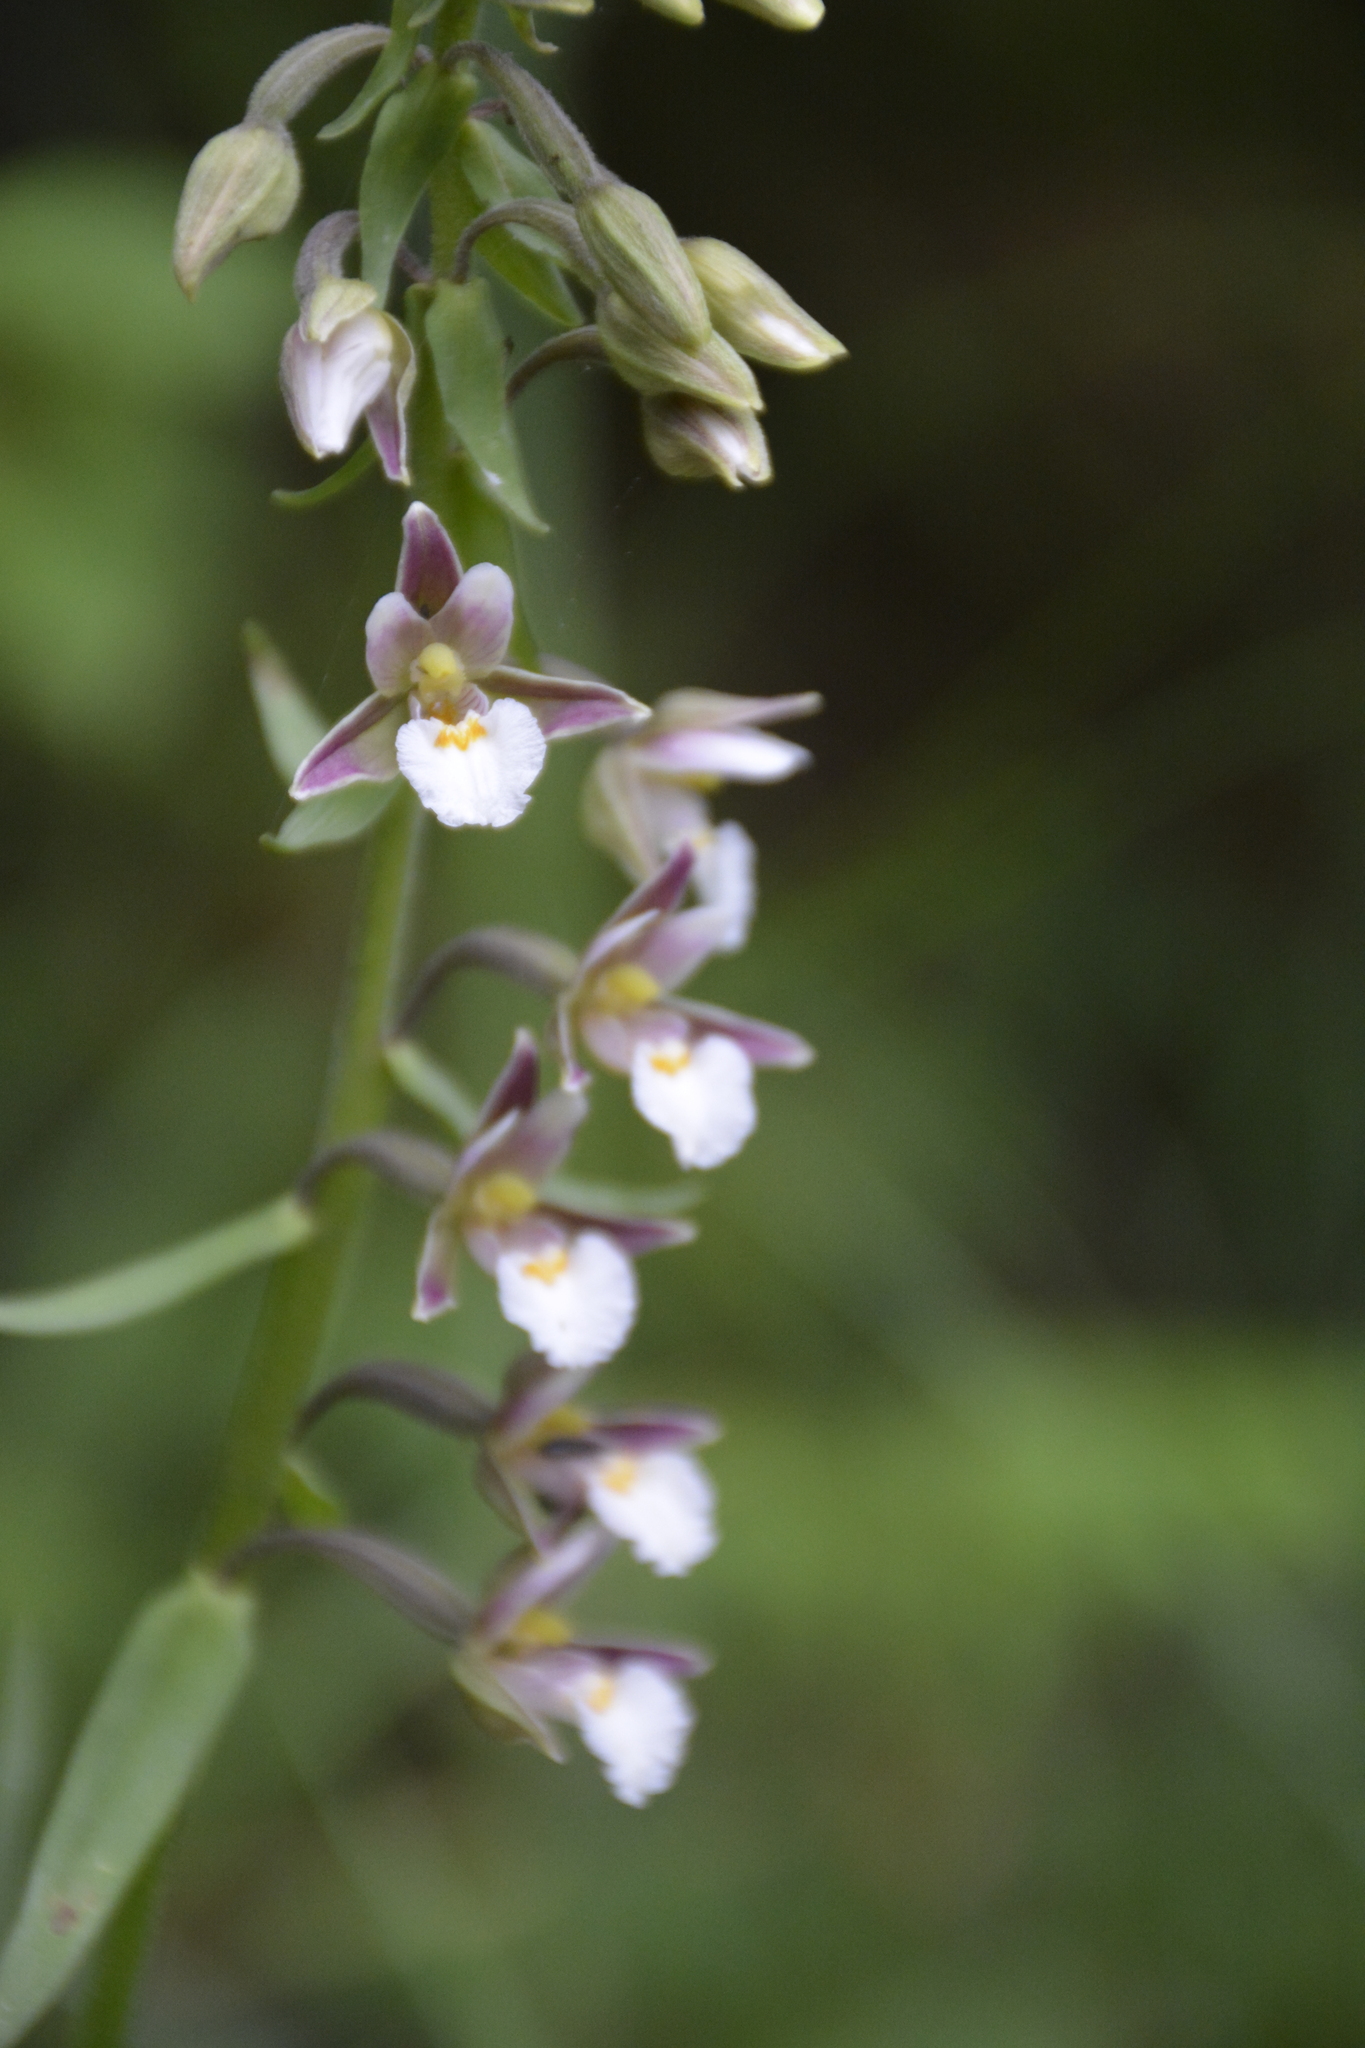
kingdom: Plantae
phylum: Tracheophyta
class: Liliopsida
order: Asparagales
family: Orchidaceae
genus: Epipactis
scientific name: Epipactis palustris
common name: Marsh helleborine
